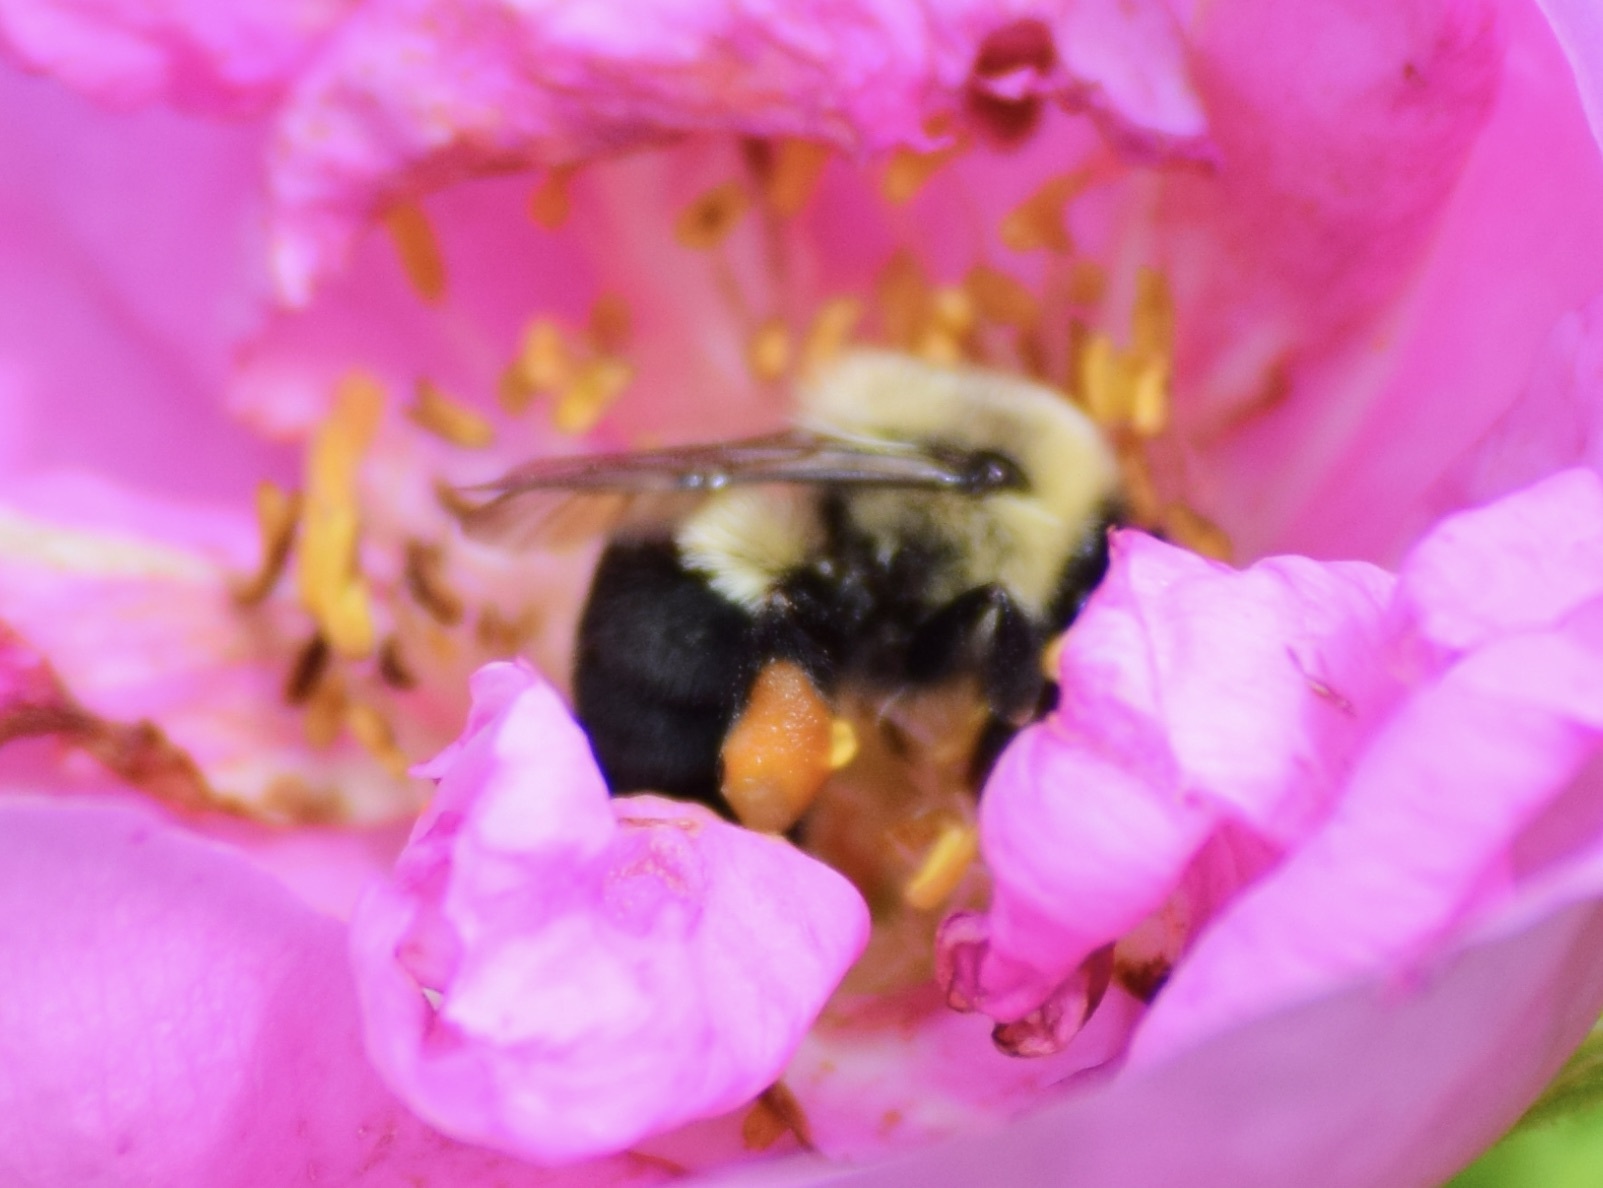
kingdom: Animalia
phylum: Arthropoda
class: Insecta
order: Hymenoptera
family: Apidae
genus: Bombus
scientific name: Bombus impatiens
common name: Common eastern bumble bee
